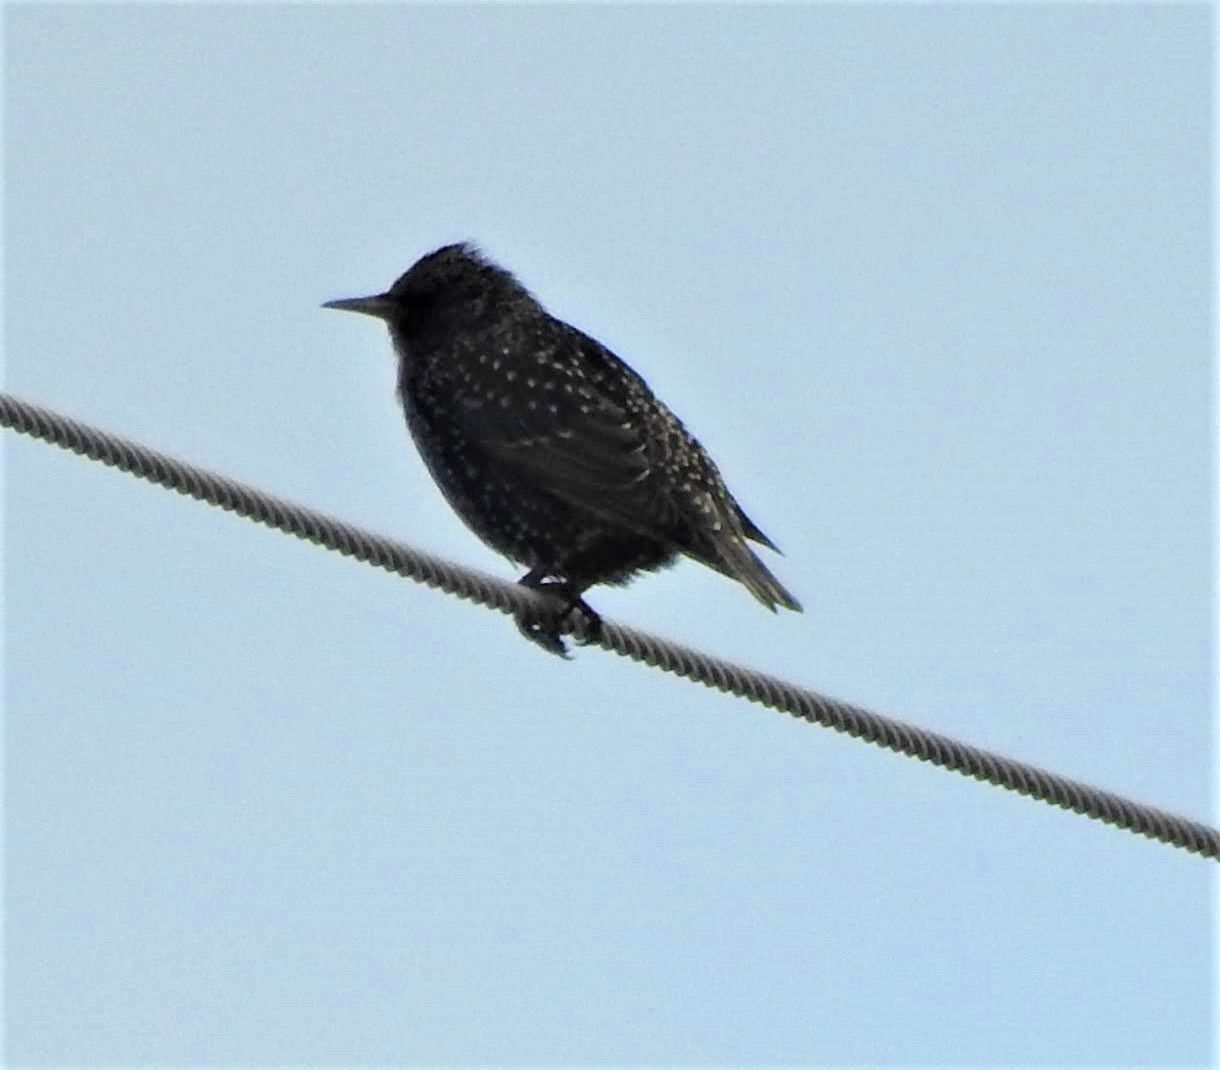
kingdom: Animalia
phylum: Chordata
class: Aves
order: Passeriformes
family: Sturnidae
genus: Sturnus
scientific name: Sturnus vulgaris
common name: Common starling
